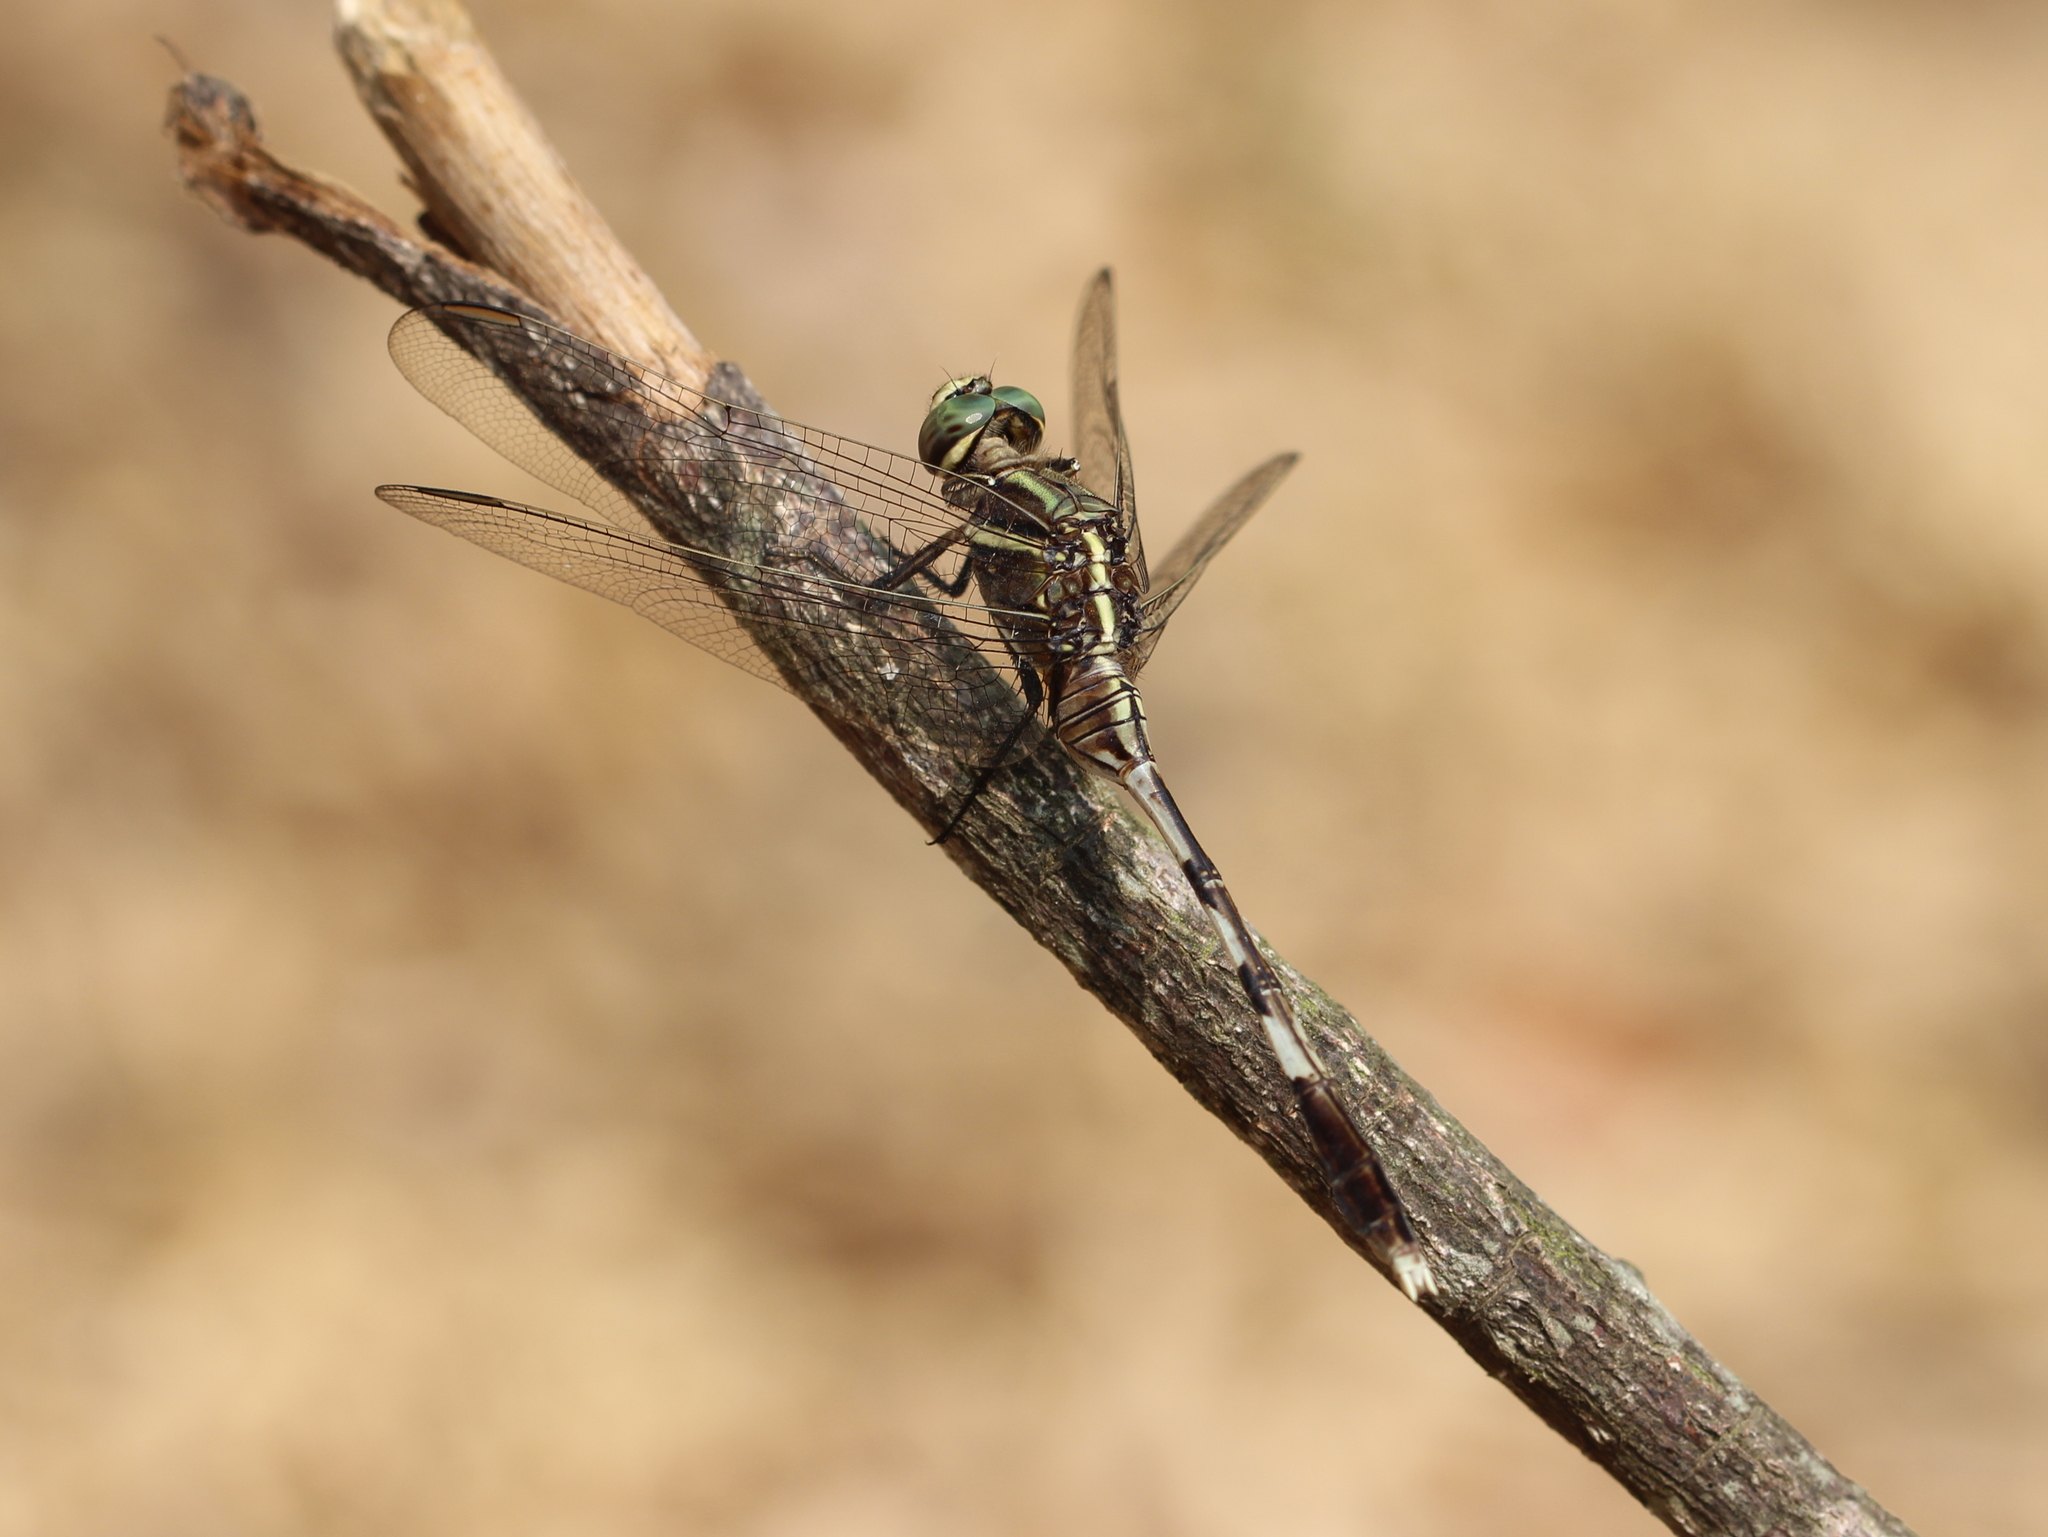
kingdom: Animalia
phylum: Arthropoda
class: Insecta
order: Odonata
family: Libellulidae
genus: Orthetrum
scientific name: Orthetrum sabina
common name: Slender skimmer
